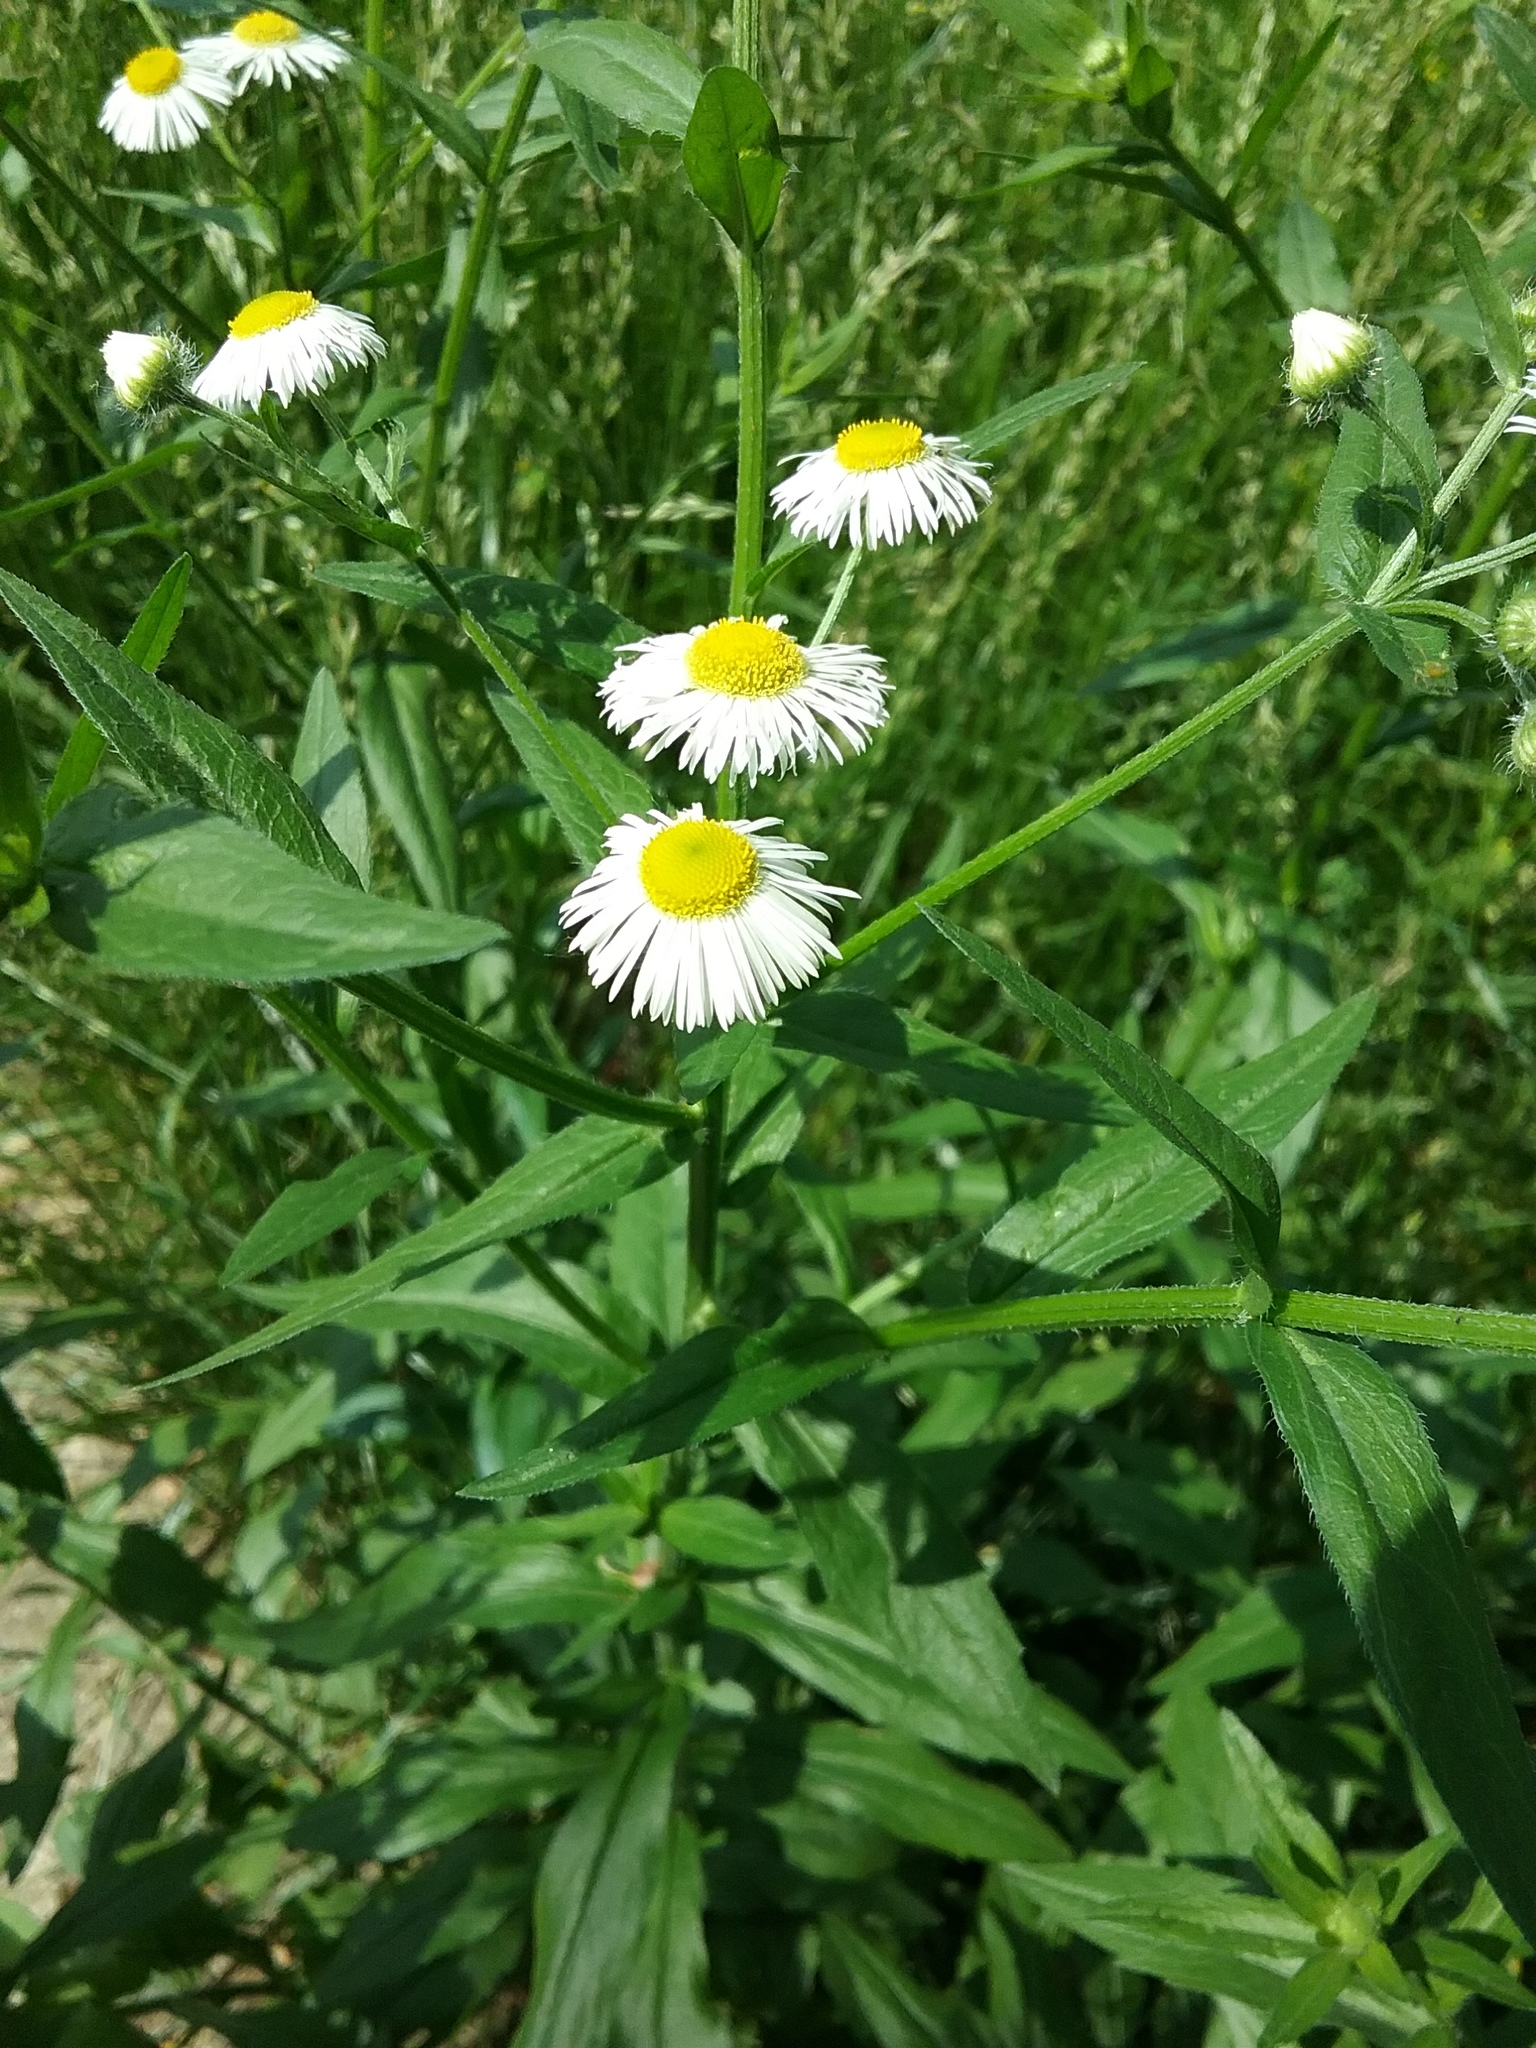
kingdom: Plantae
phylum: Tracheophyta
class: Magnoliopsida
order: Asterales
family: Asteraceae
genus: Erigeron
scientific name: Erigeron annuus
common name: Tall fleabane
